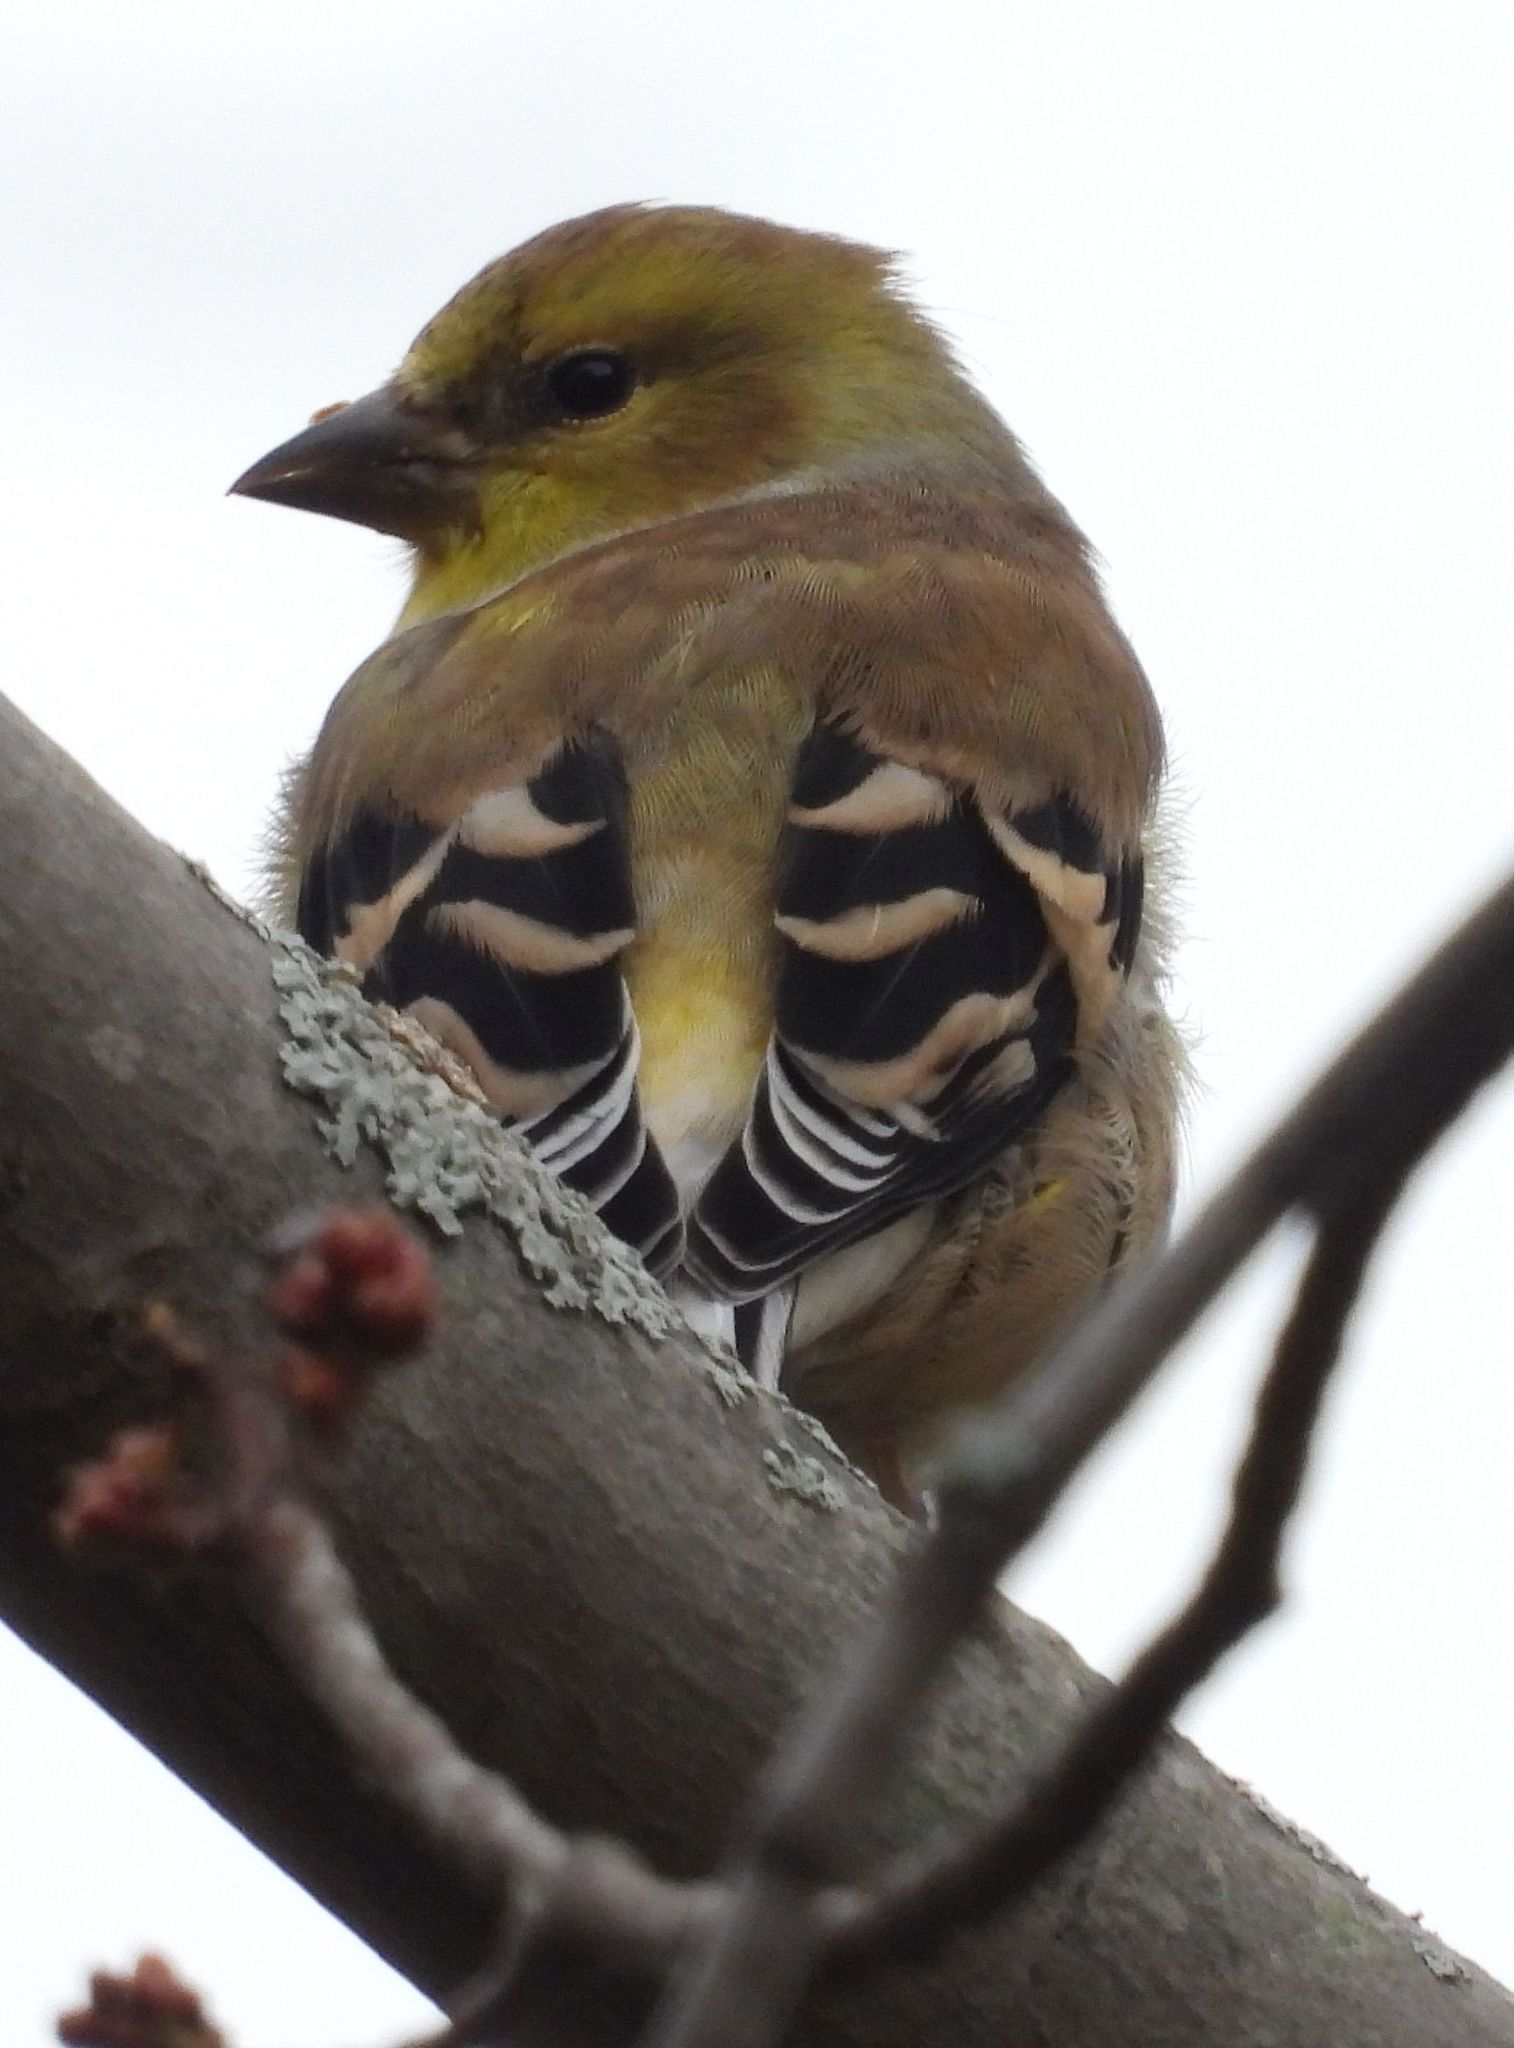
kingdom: Animalia
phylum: Chordata
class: Aves
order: Passeriformes
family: Fringillidae
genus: Spinus
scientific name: Spinus tristis
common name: American goldfinch
